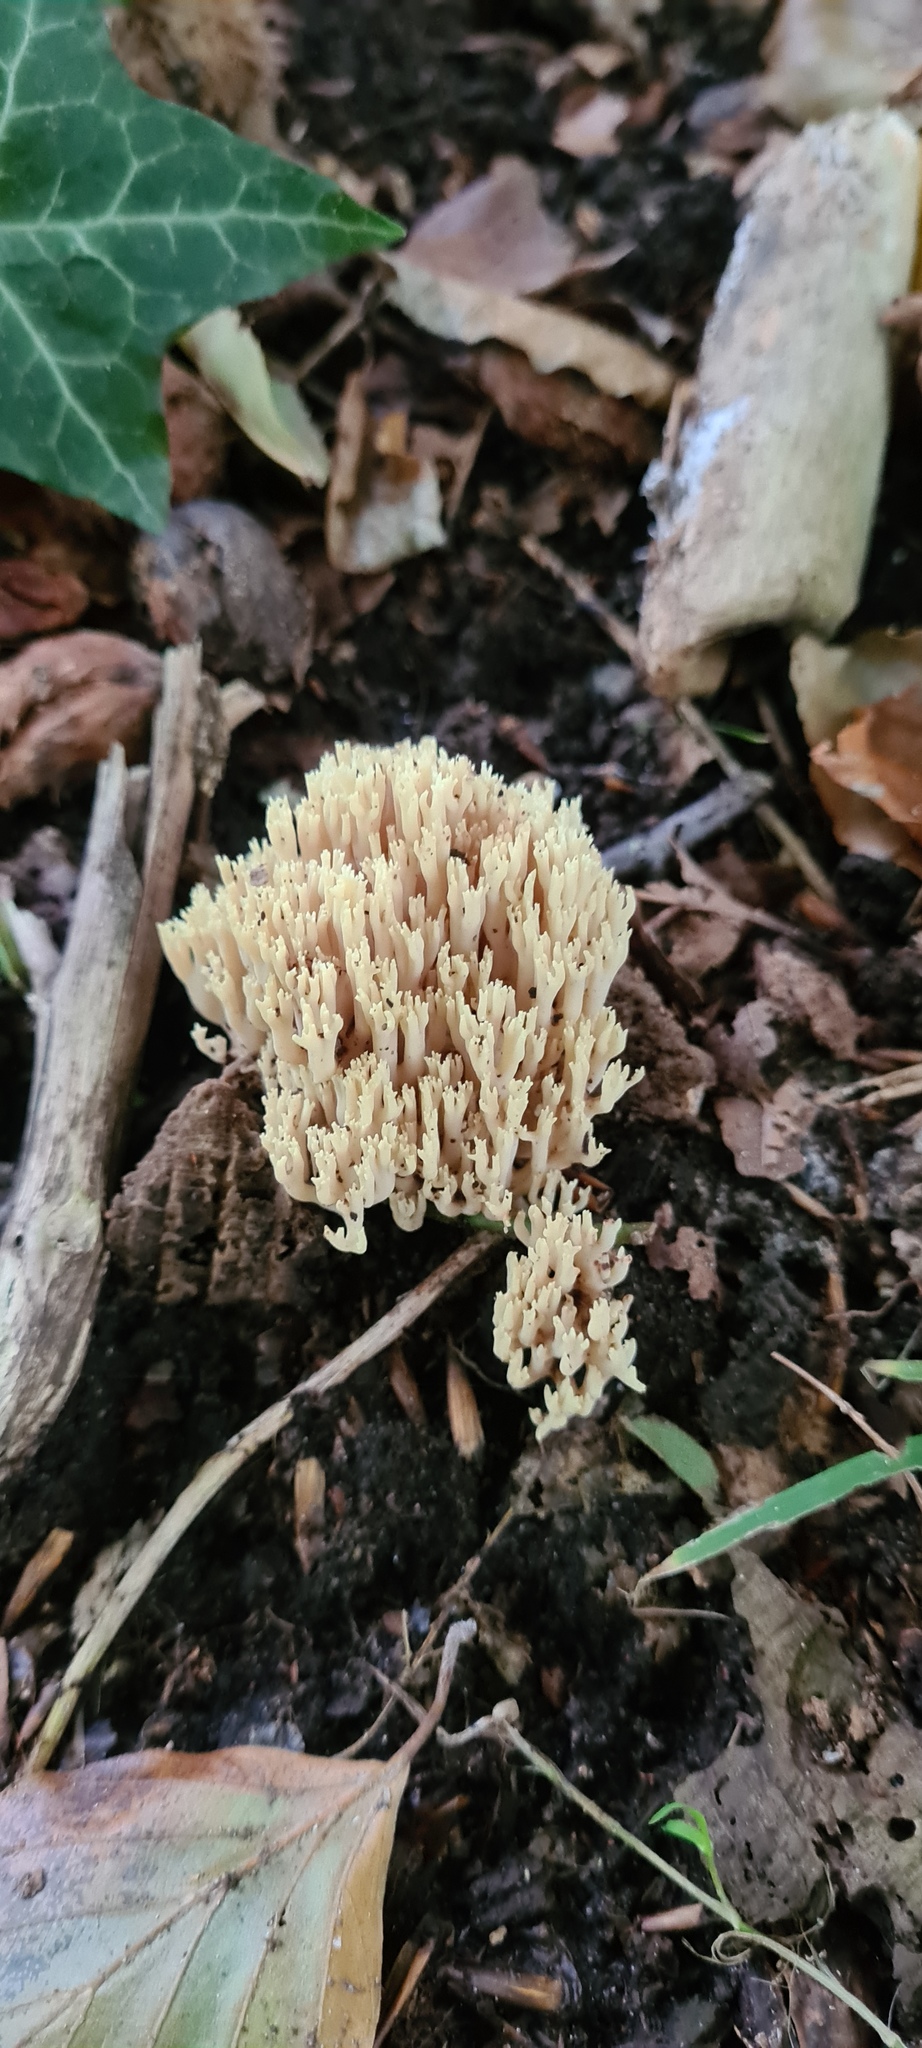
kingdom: Fungi
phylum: Basidiomycota
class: Agaricomycetes
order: Gomphales
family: Gomphaceae
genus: Ramaria
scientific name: Ramaria stricta
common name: Upright coral
